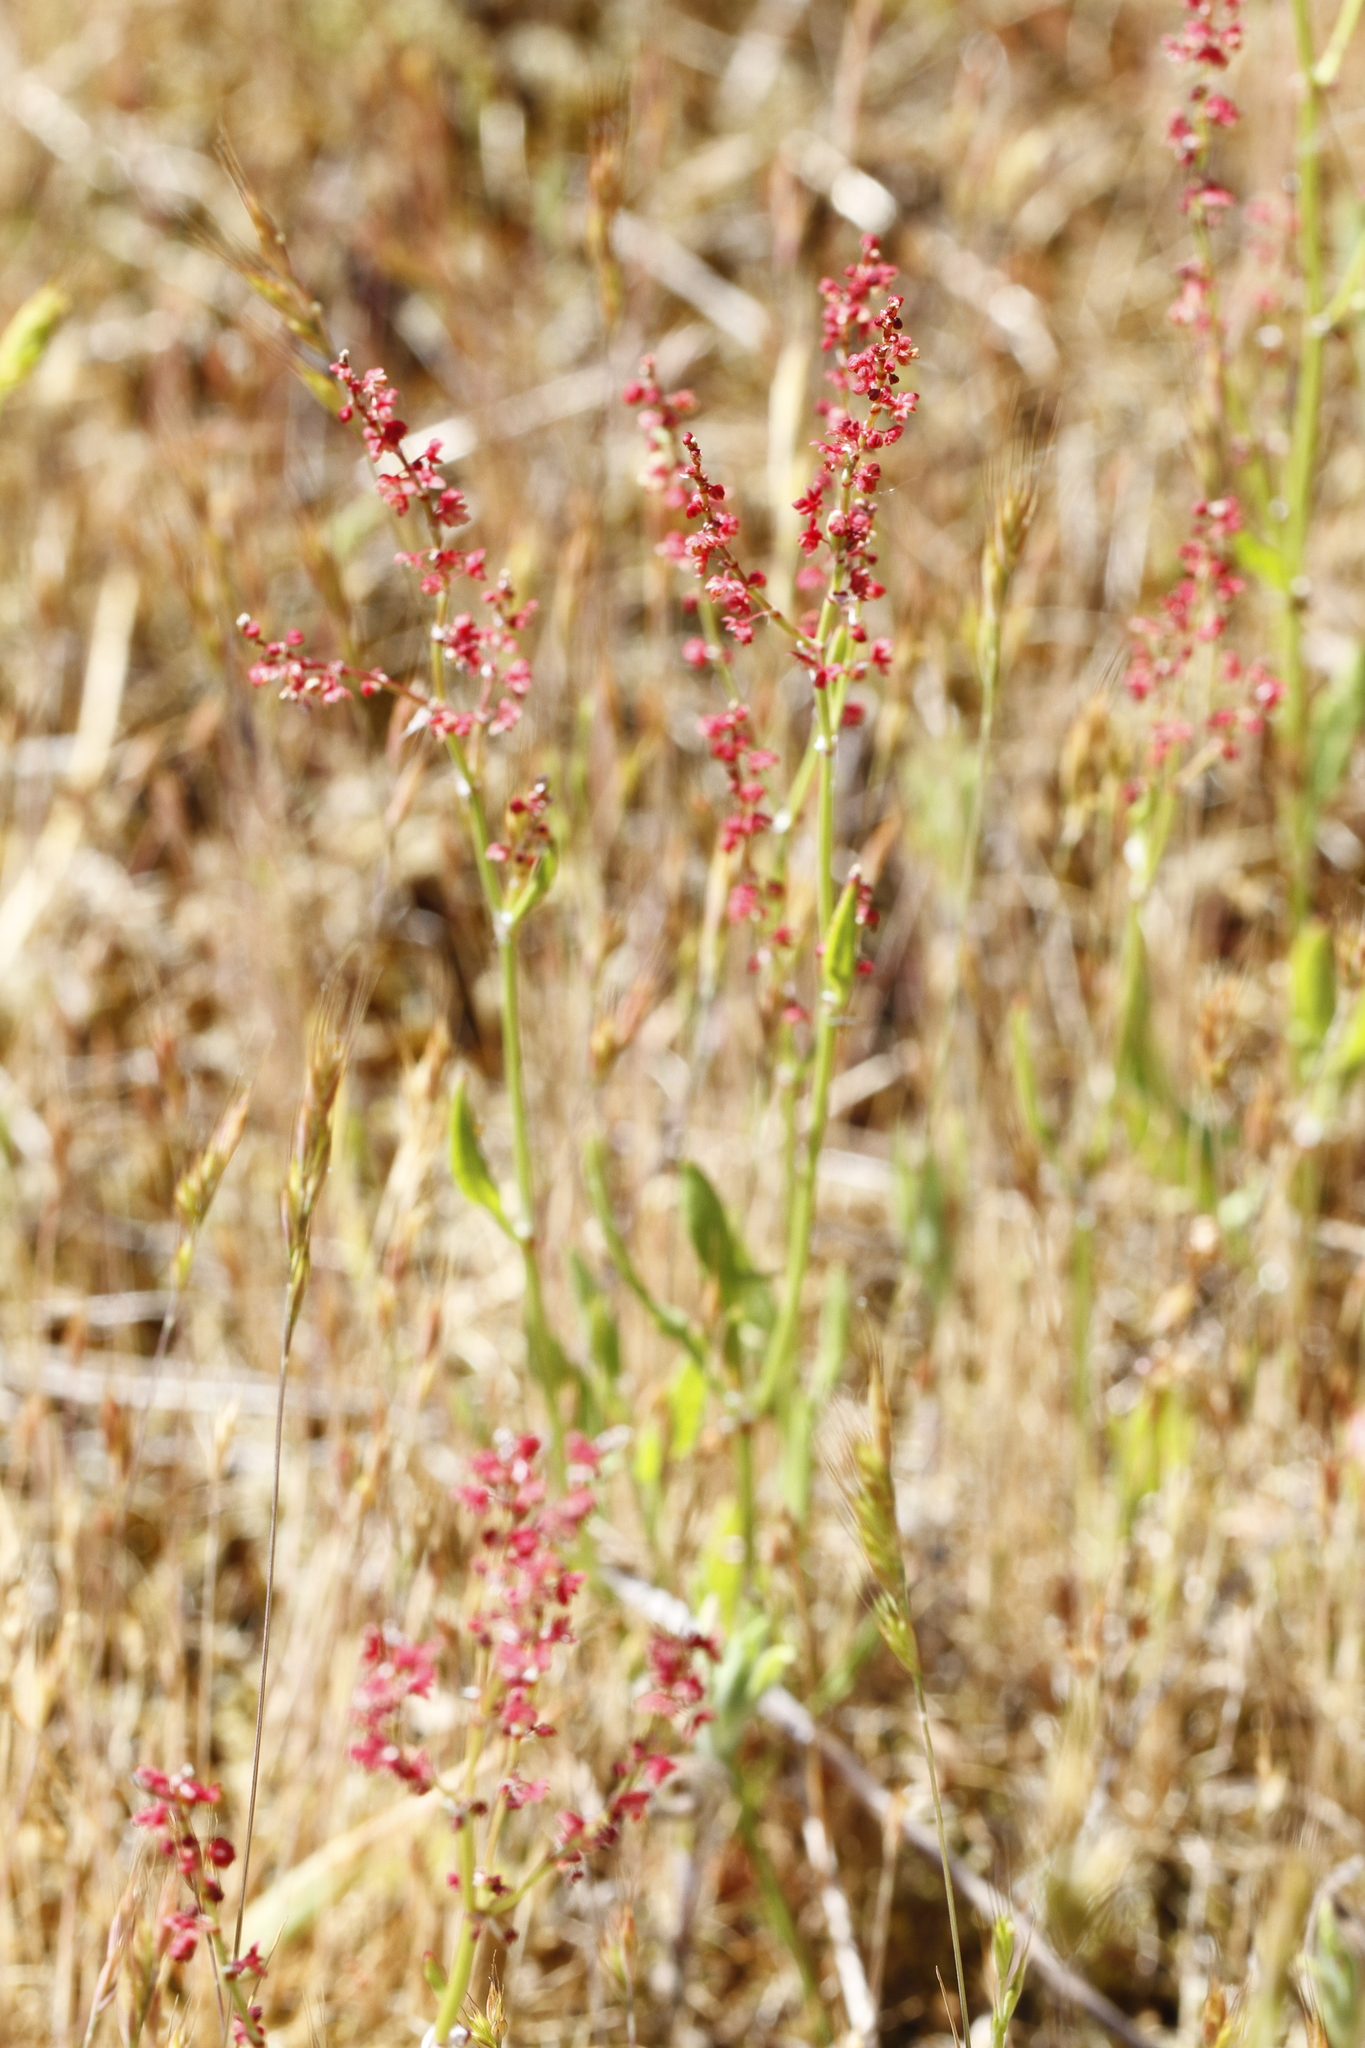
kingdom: Plantae
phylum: Tracheophyta
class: Magnoliopsida
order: Caryophyllales
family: Polygonaceae
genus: Rumex
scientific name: Rumex acetosella
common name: Common sheep sorrel
